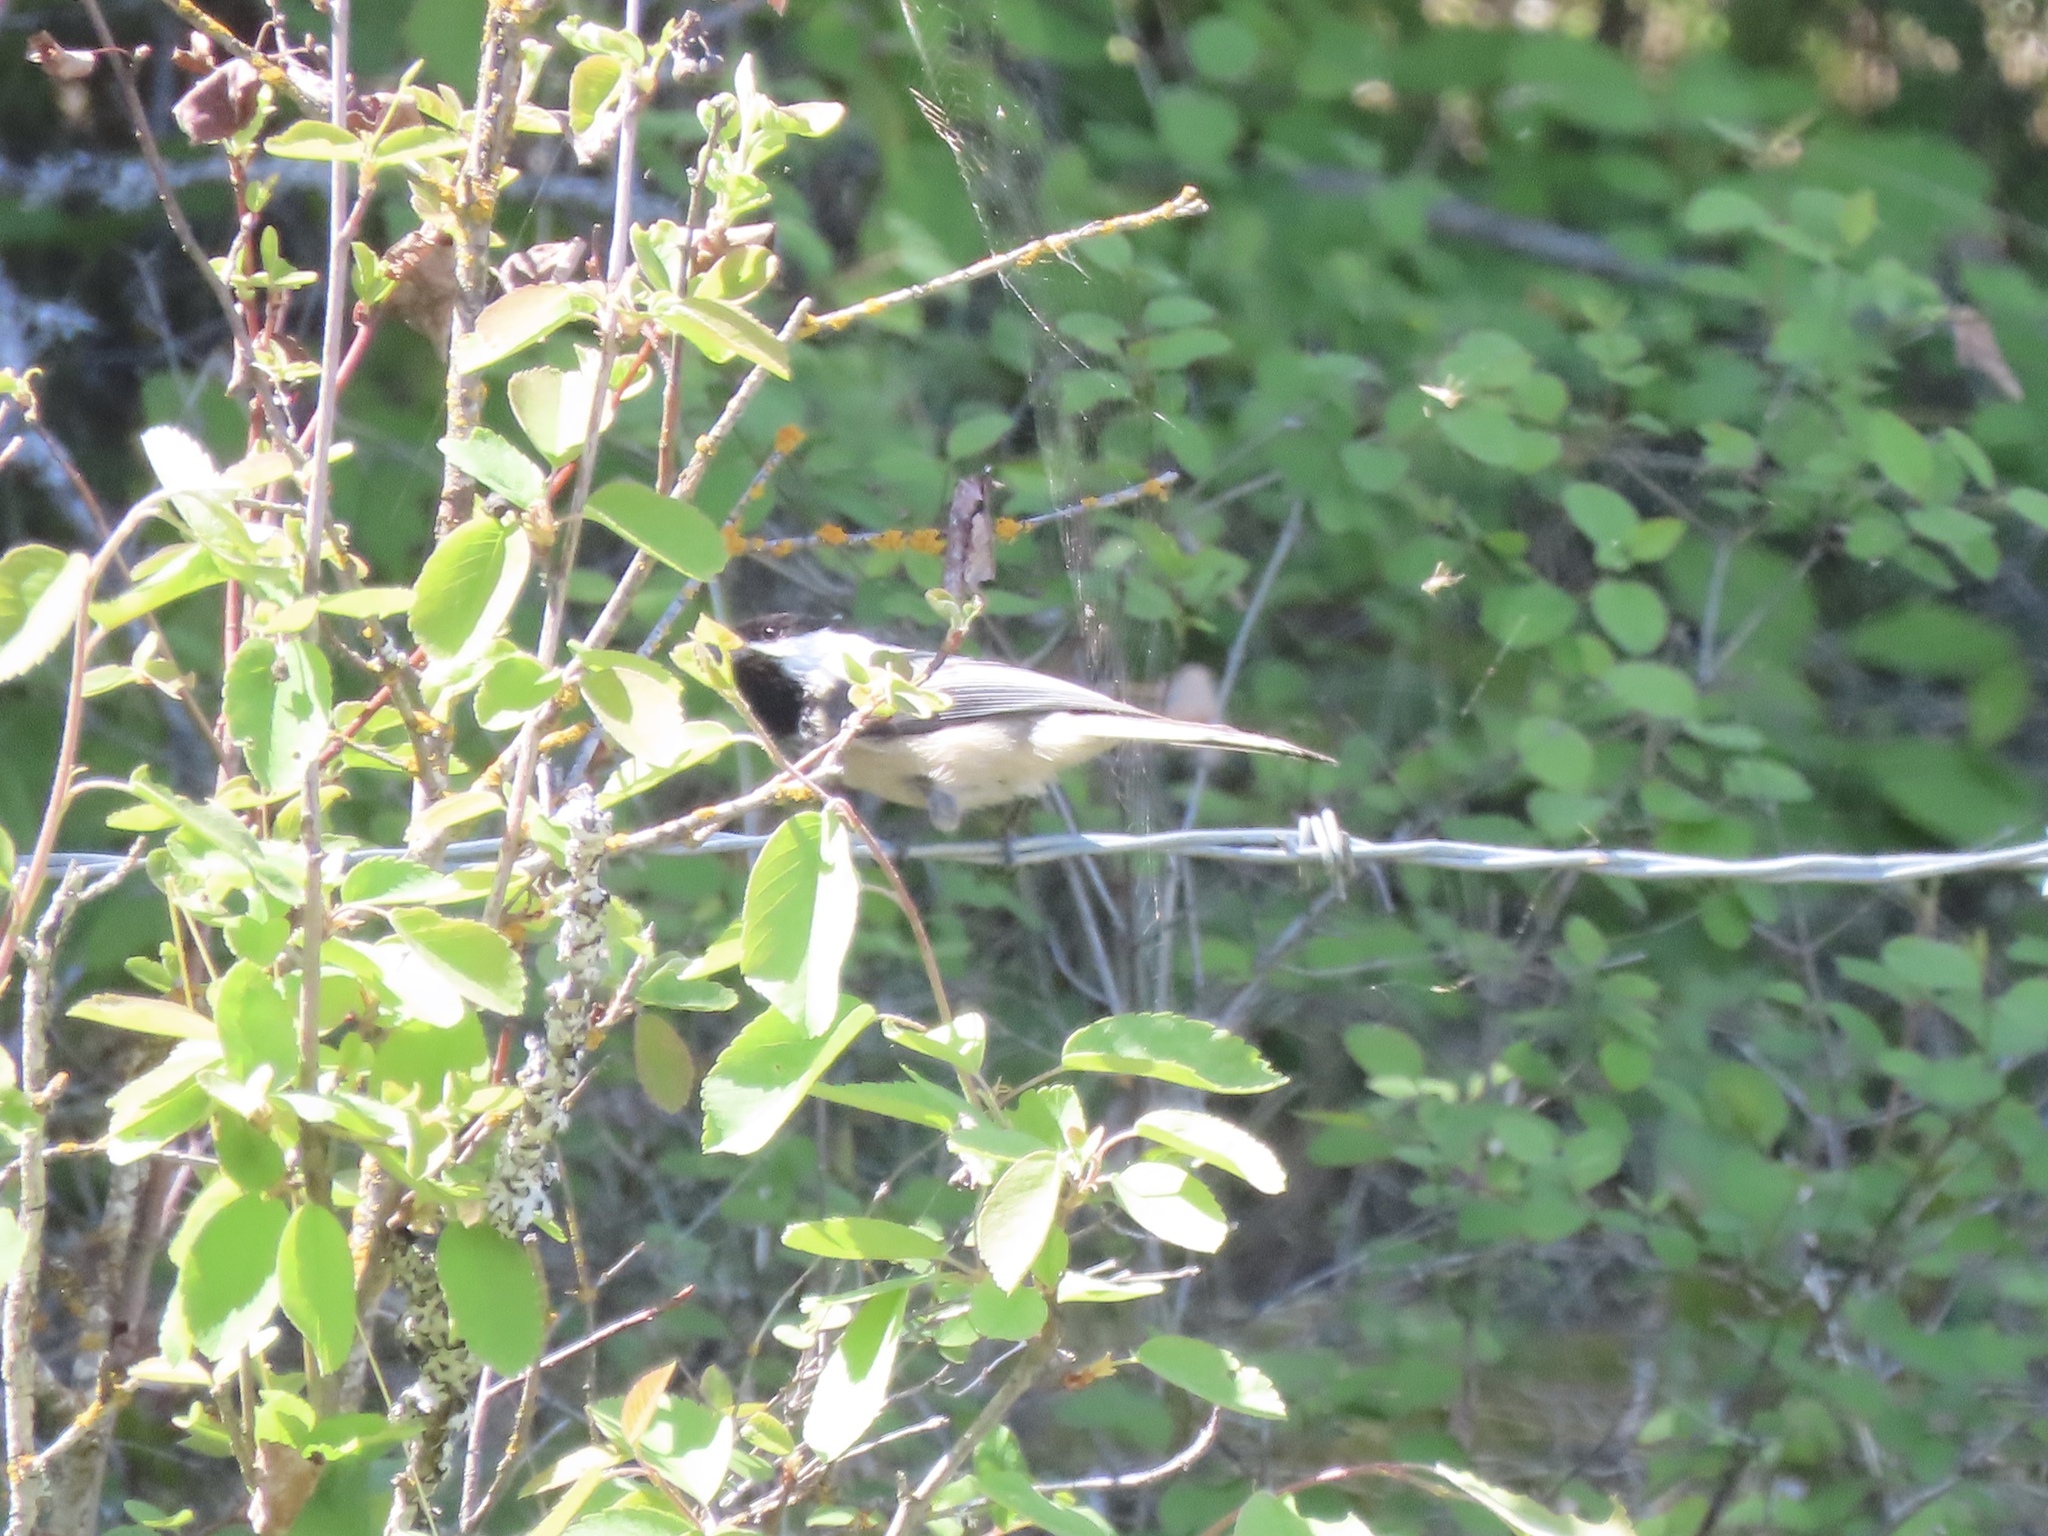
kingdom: Animalia
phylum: Chordata
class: Aves
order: Passeriformes
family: Paridae
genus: Poecile
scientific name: Poecile atricapillus
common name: Black-capped chickadee
